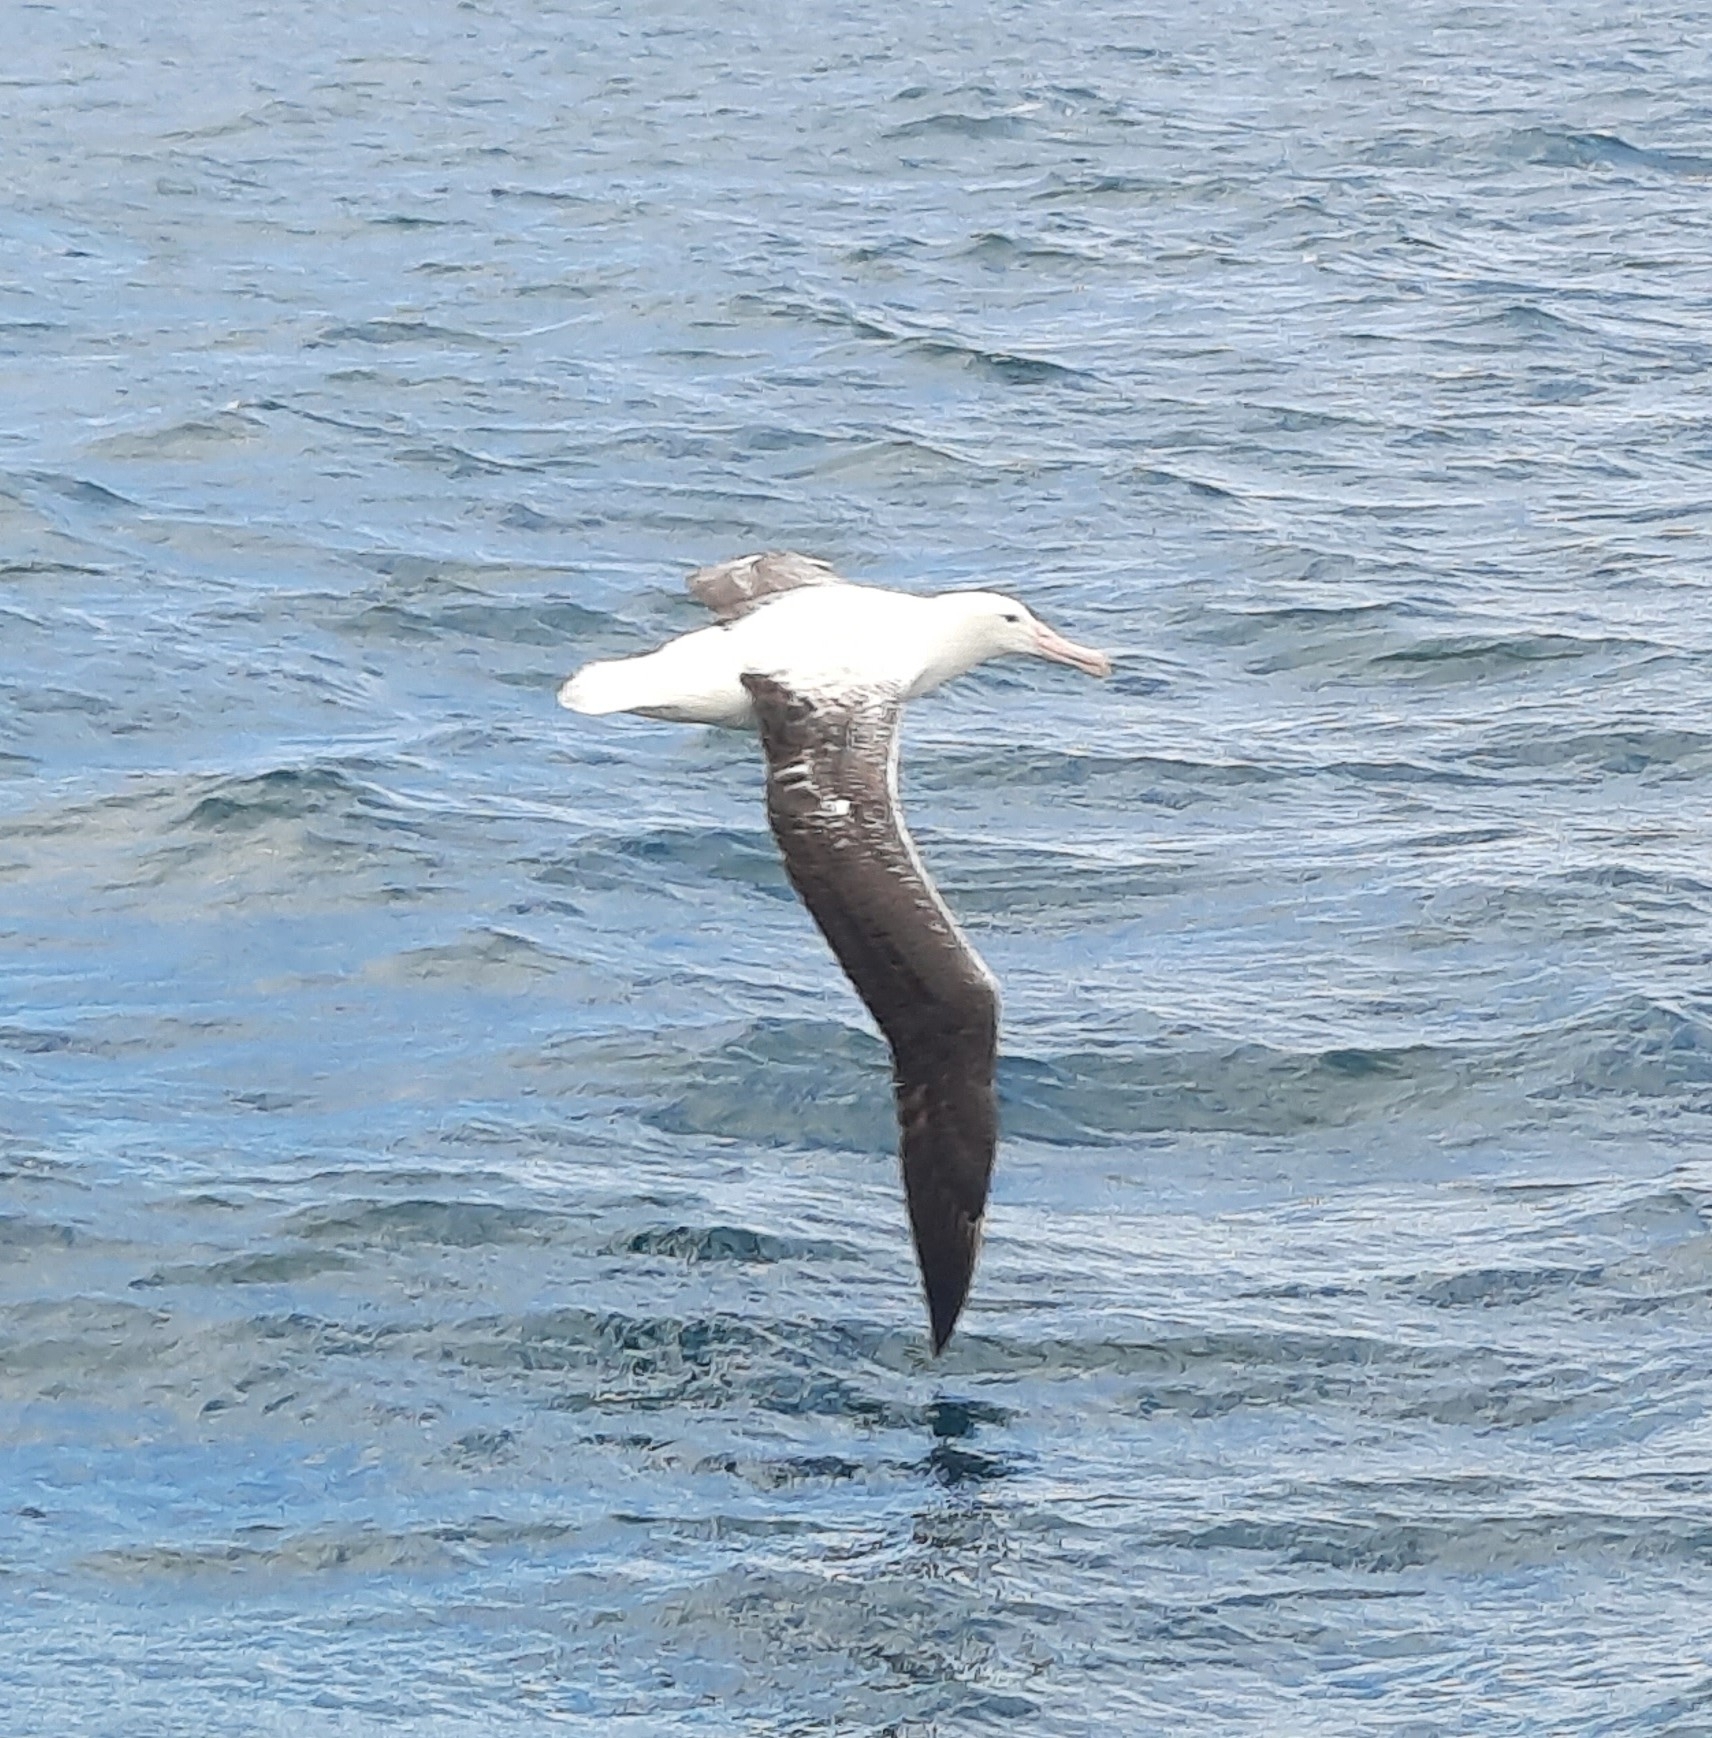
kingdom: Animalia
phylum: Chordata
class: Aves
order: Procellariiformes
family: Diomedeidae
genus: Diomedea
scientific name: Diomedea epomophora
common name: Southern royal albatross
